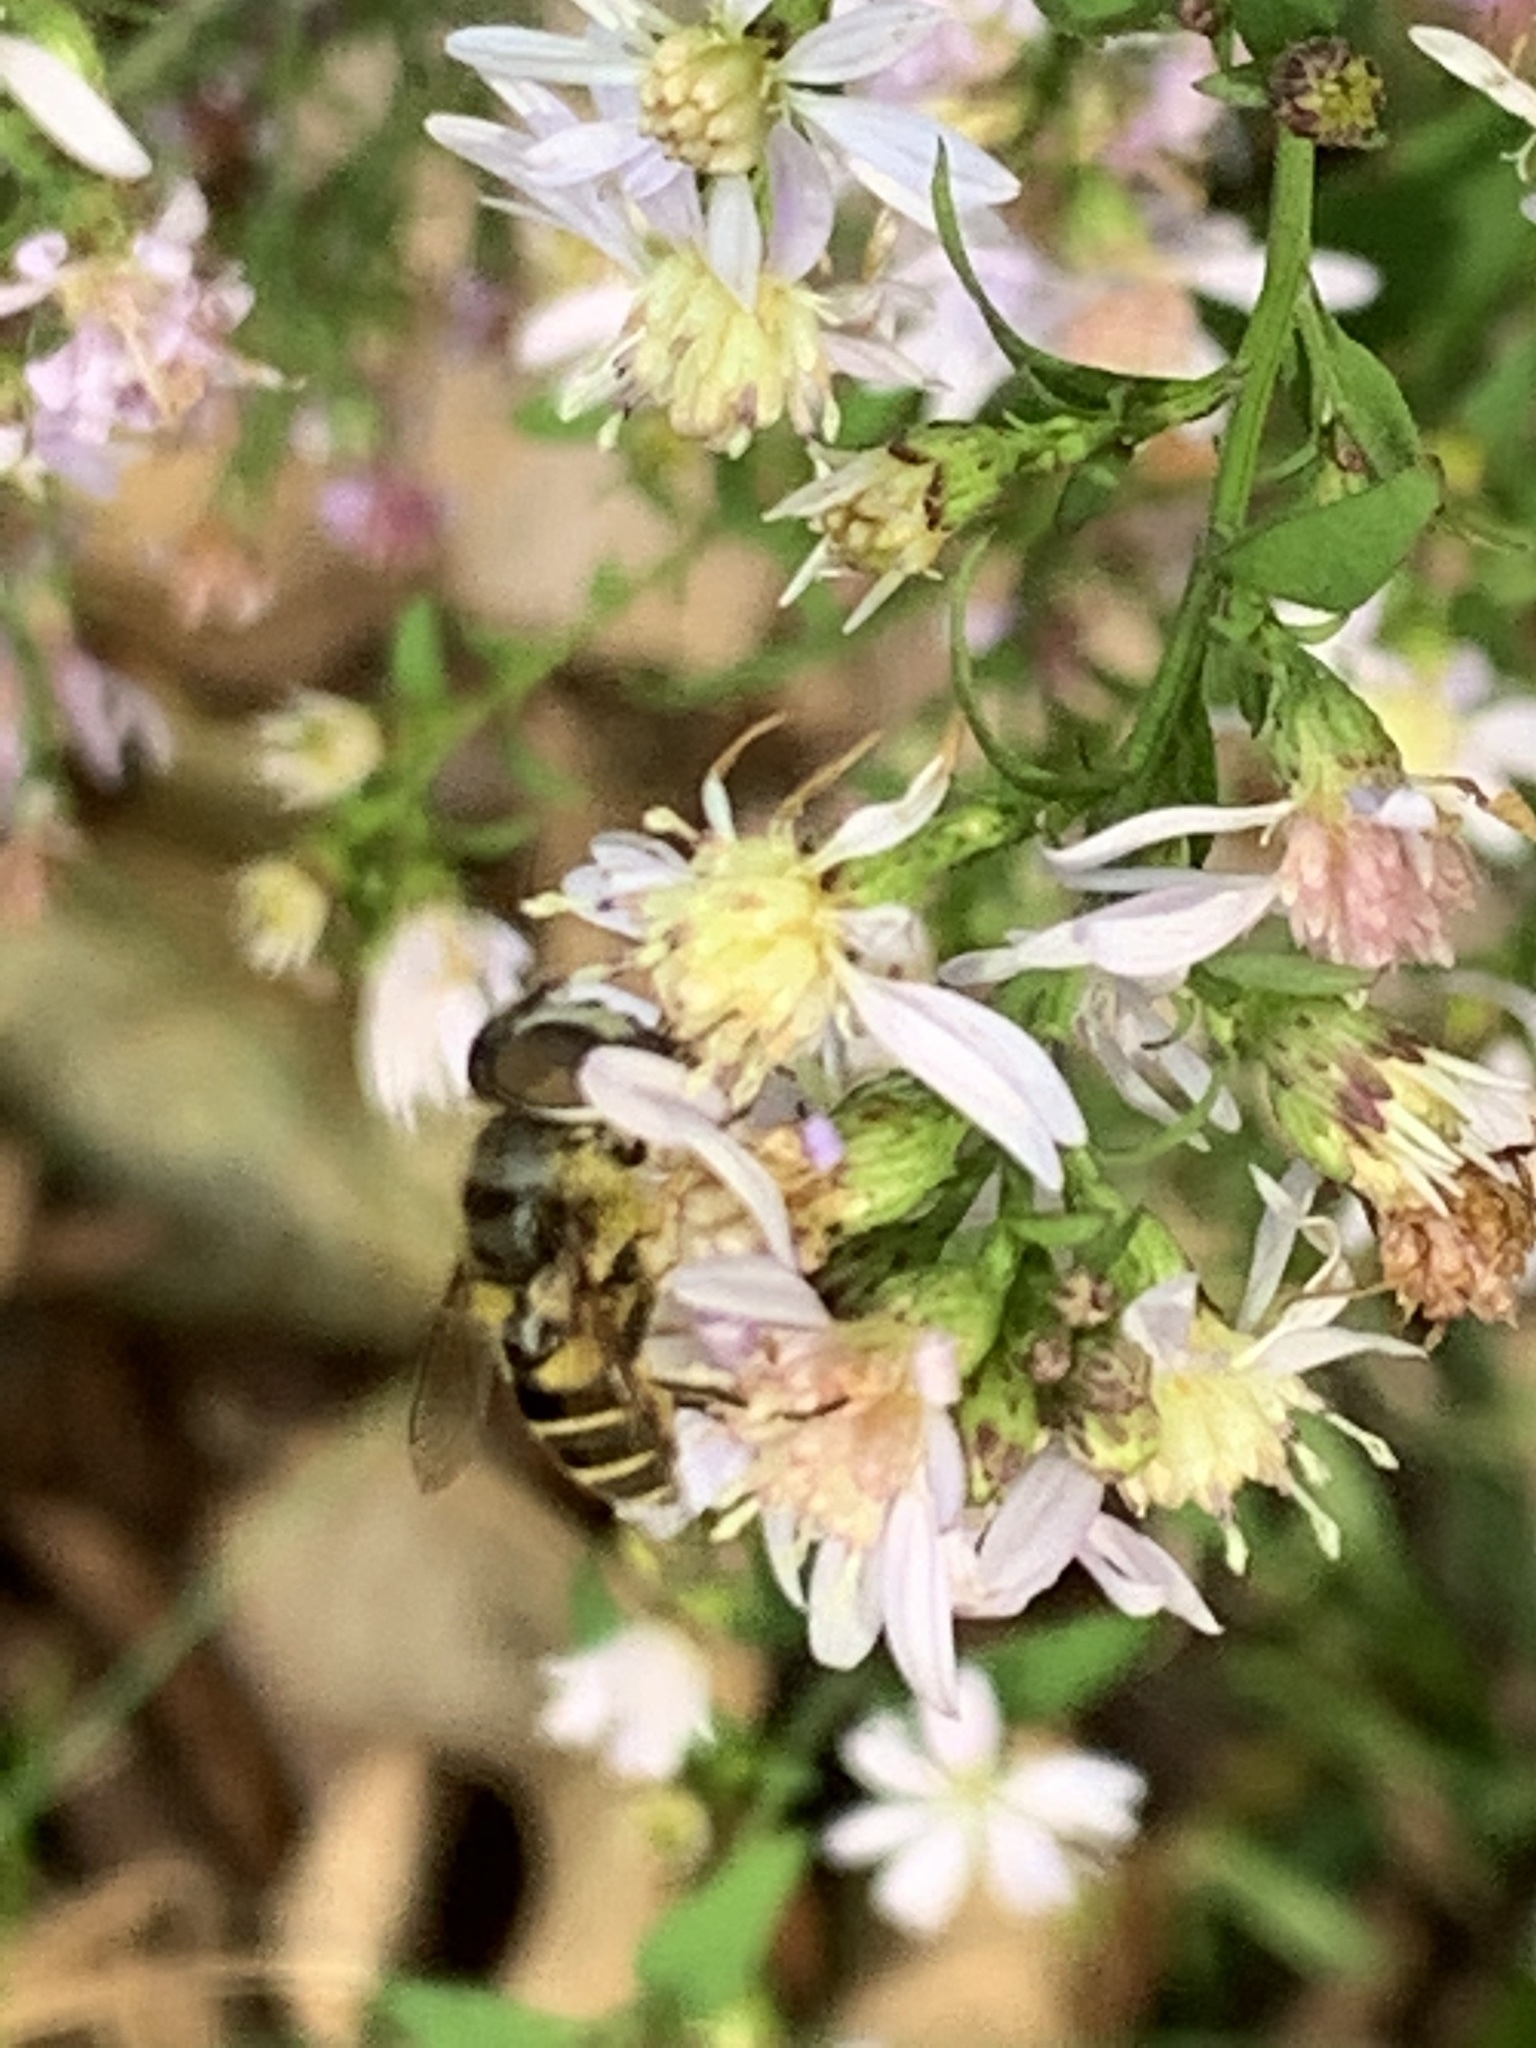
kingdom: Animalia
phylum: Arthropoda
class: Insecta
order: Diptera
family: Syrphidae
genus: Eristalis
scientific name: Eristalis transversa
